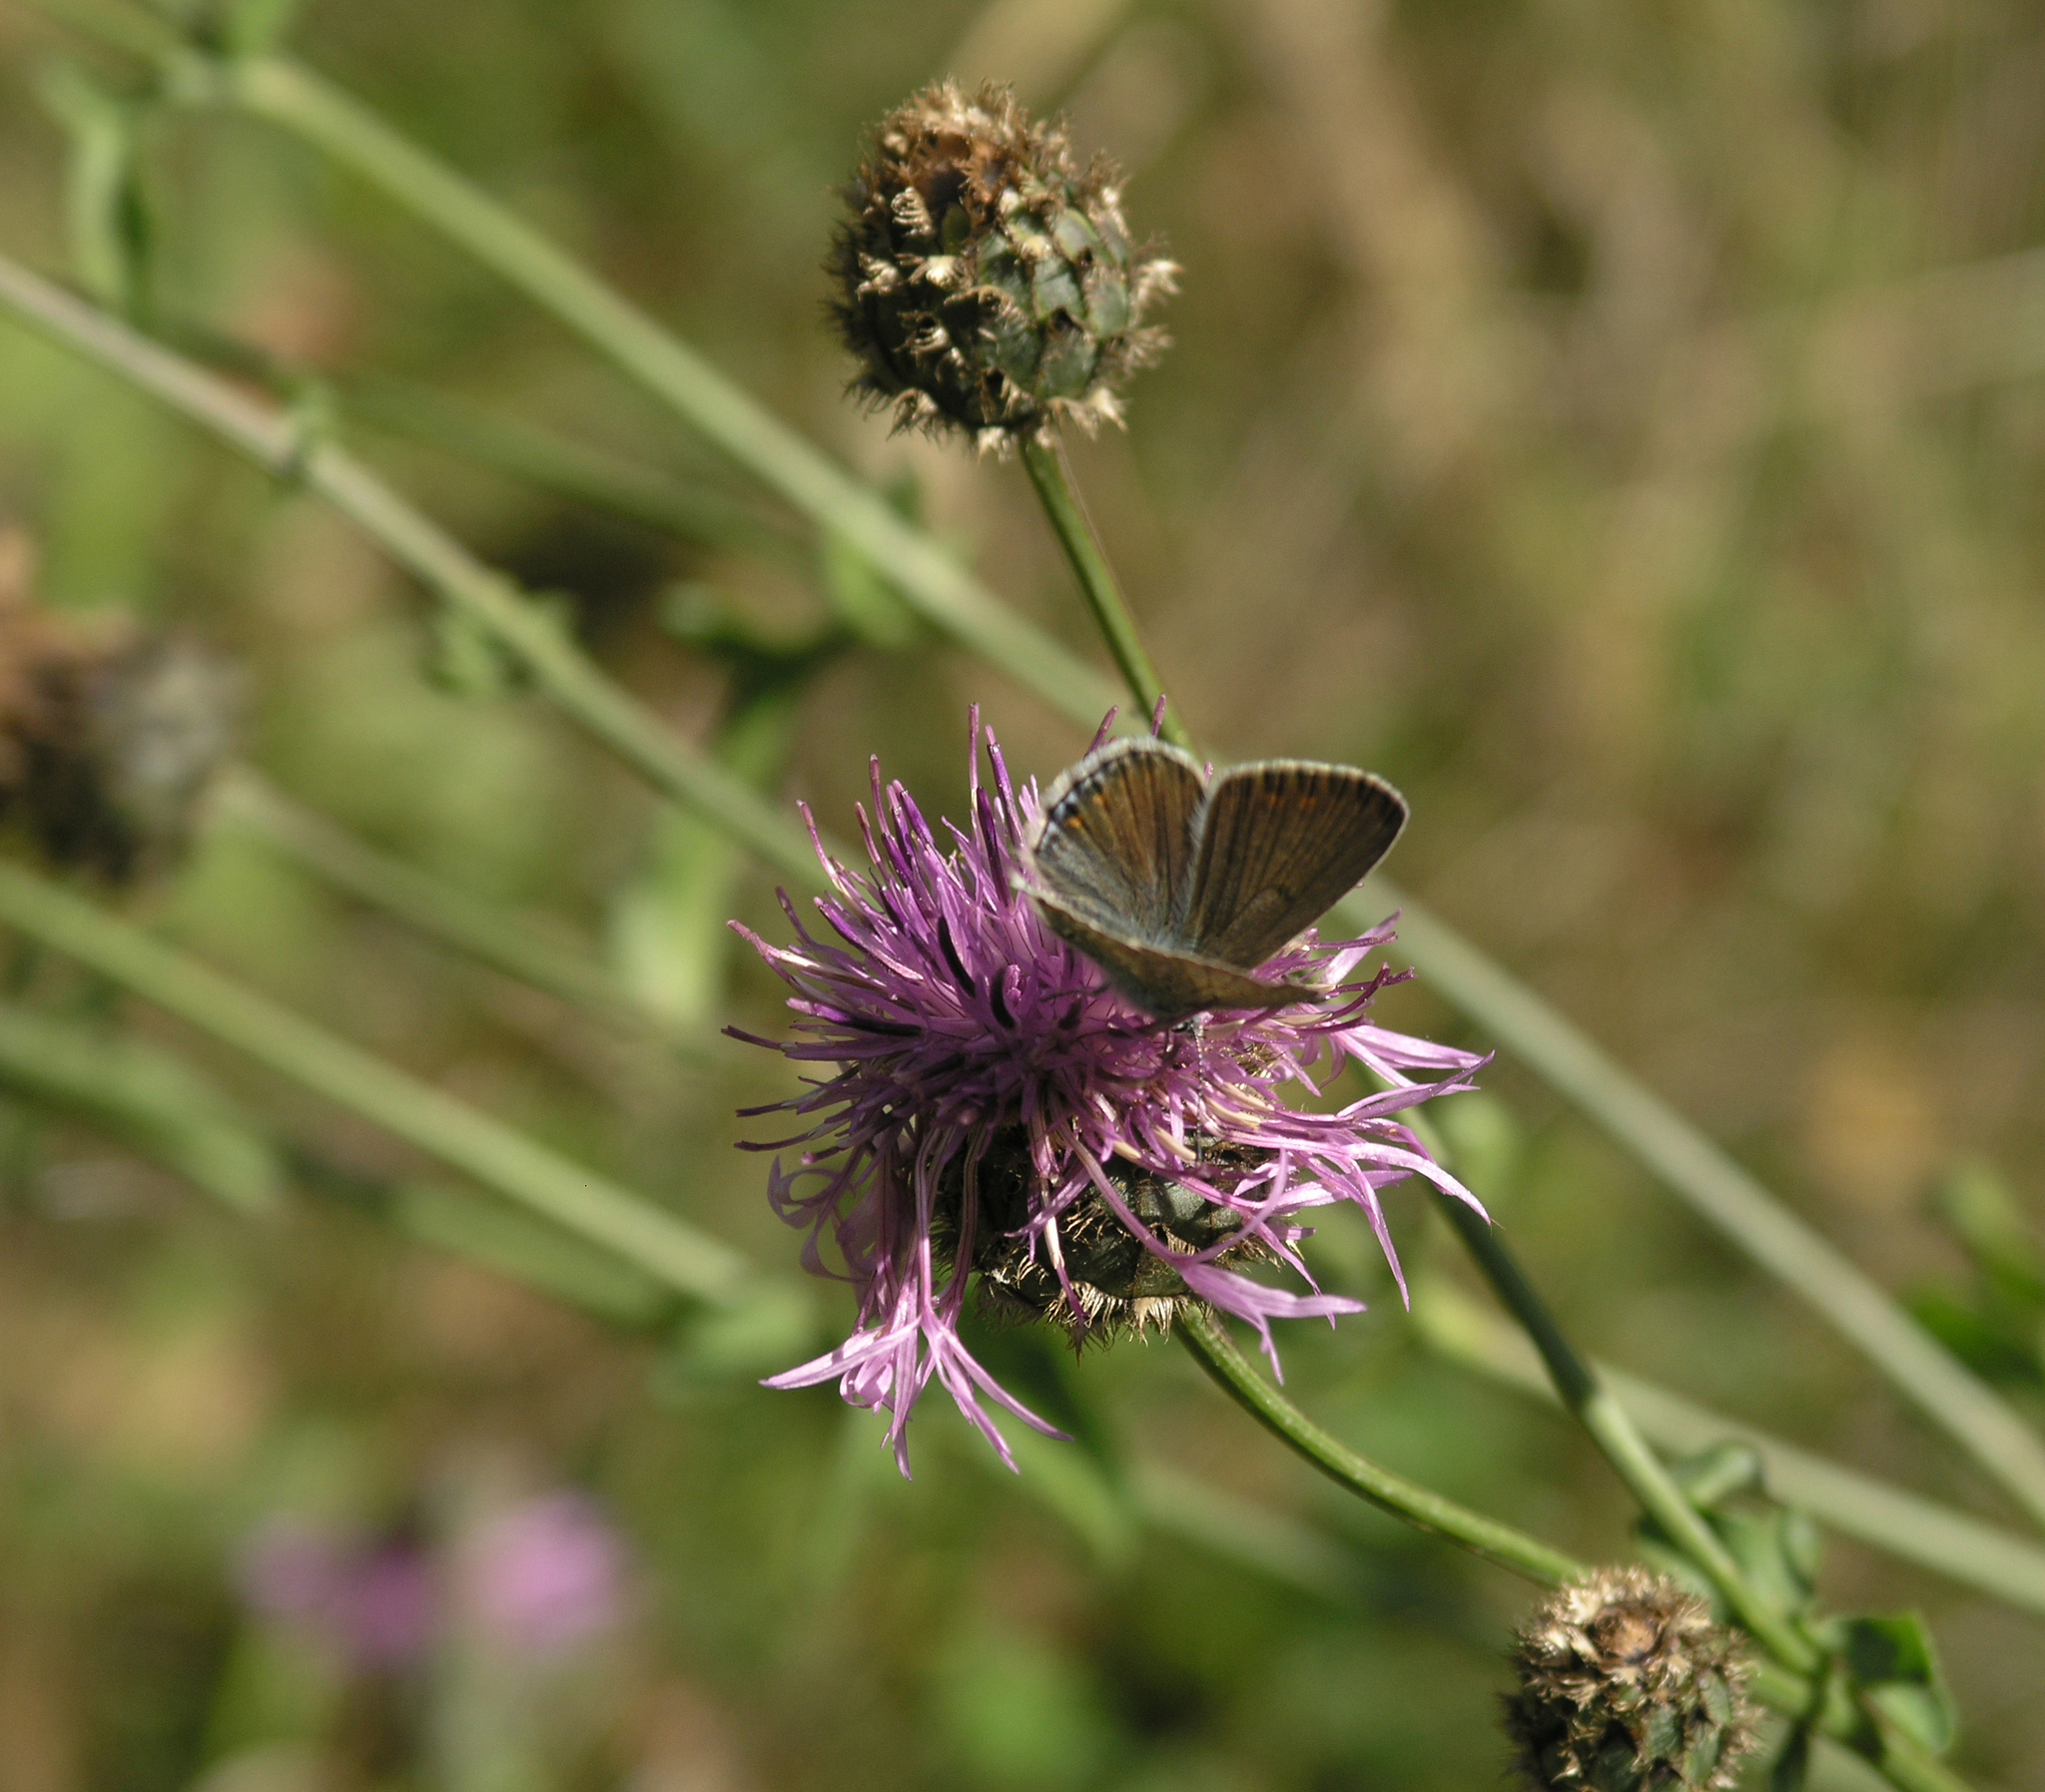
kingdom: Animalia
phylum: Arthropoda
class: Insecta
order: Lepidoptera
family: Lycaenidae
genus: Polyommatus
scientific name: Polyommatus icarus
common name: Common blue
